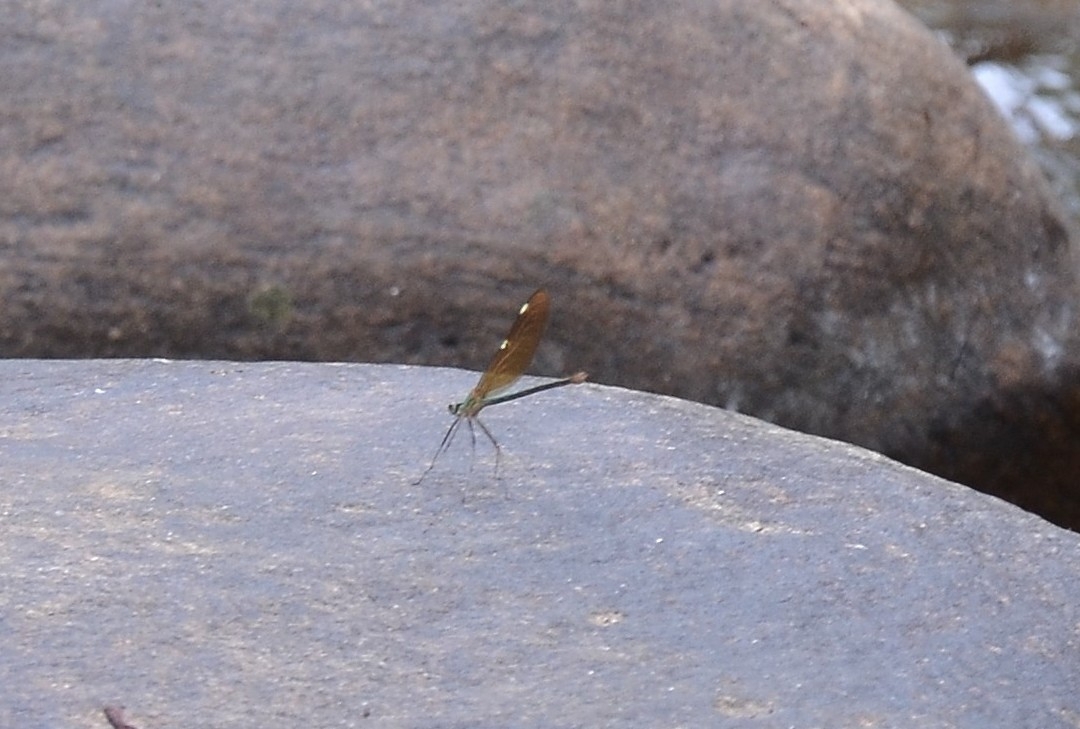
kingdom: Animalia
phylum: Arthropoda
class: Insecta
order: Odonata
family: Calopterygidae
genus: Neurobasis
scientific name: Neurobasis chinensis
